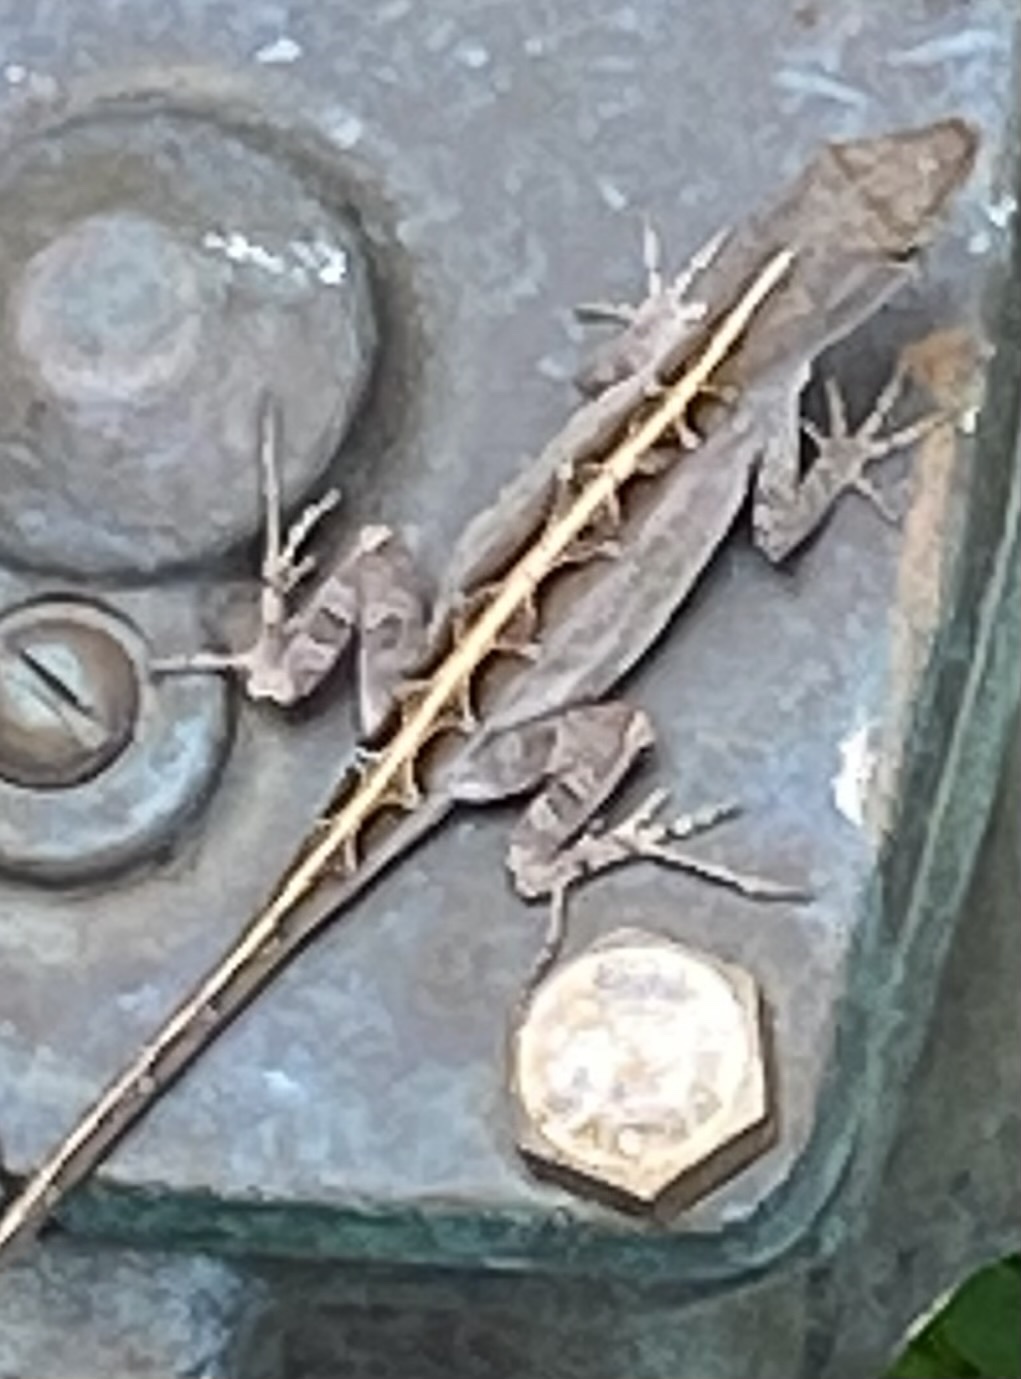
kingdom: Animalia
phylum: Chordata
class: Squamata
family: Dactyloidae
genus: Anolis
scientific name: Anolis sagrei
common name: Brown anole
